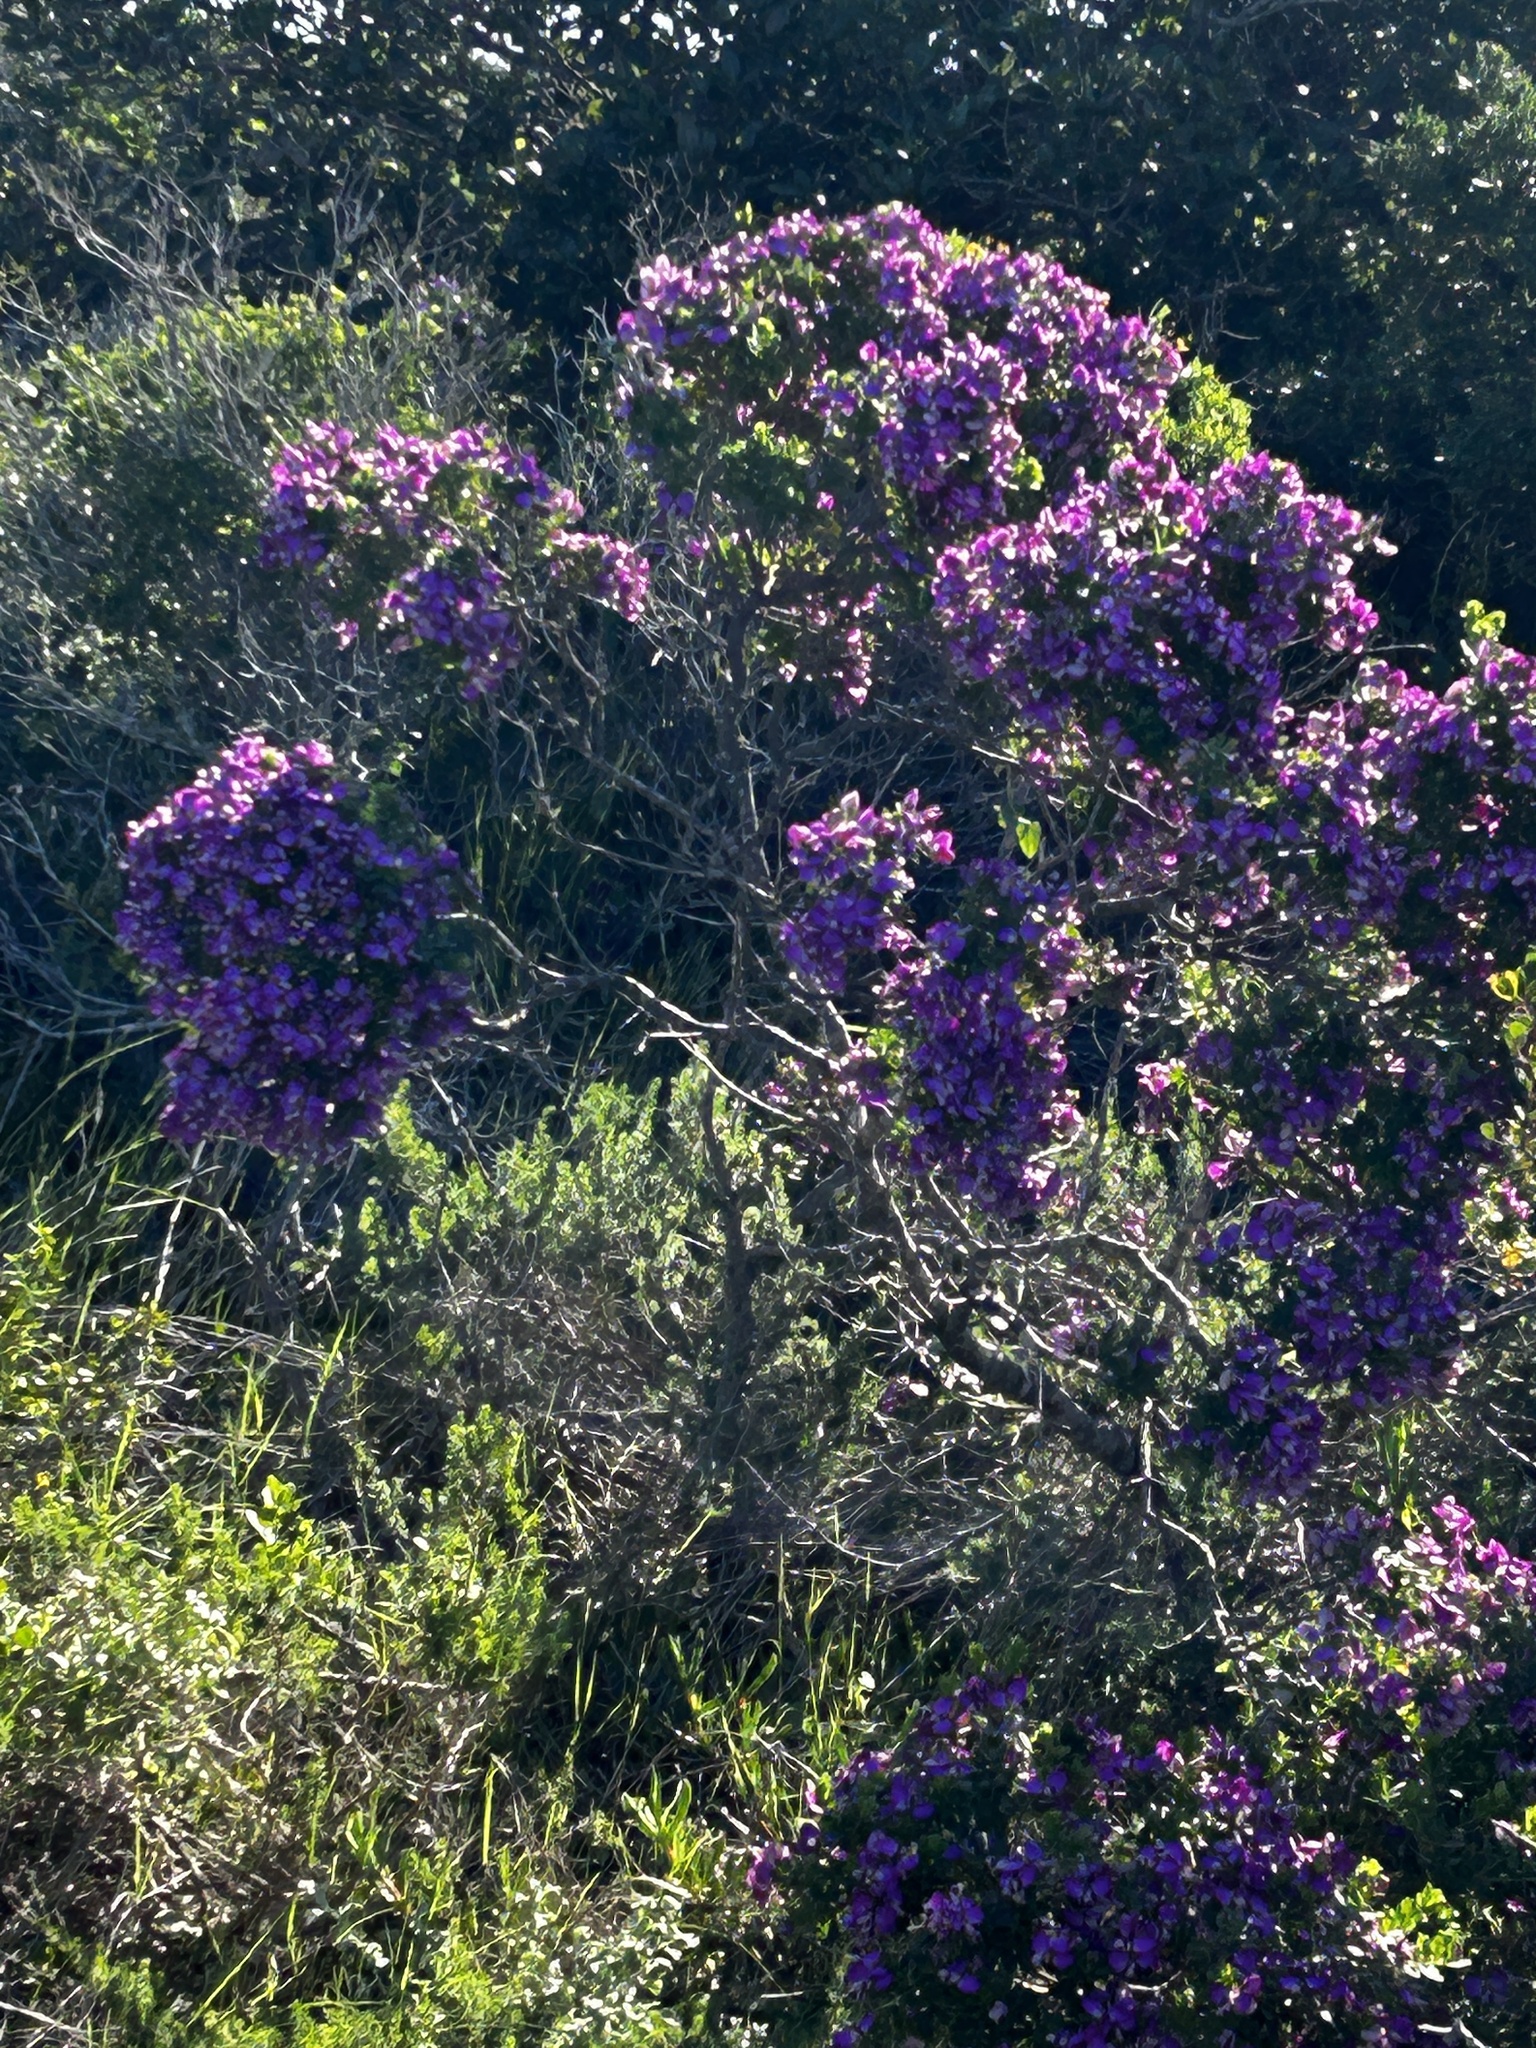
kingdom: Plantae
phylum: Tracheophyta
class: Magnoliopsida
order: Fabales
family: Polygalaceae
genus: Polygala
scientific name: Polygala myrtifolia
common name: Myrtle-leaf milkwort
